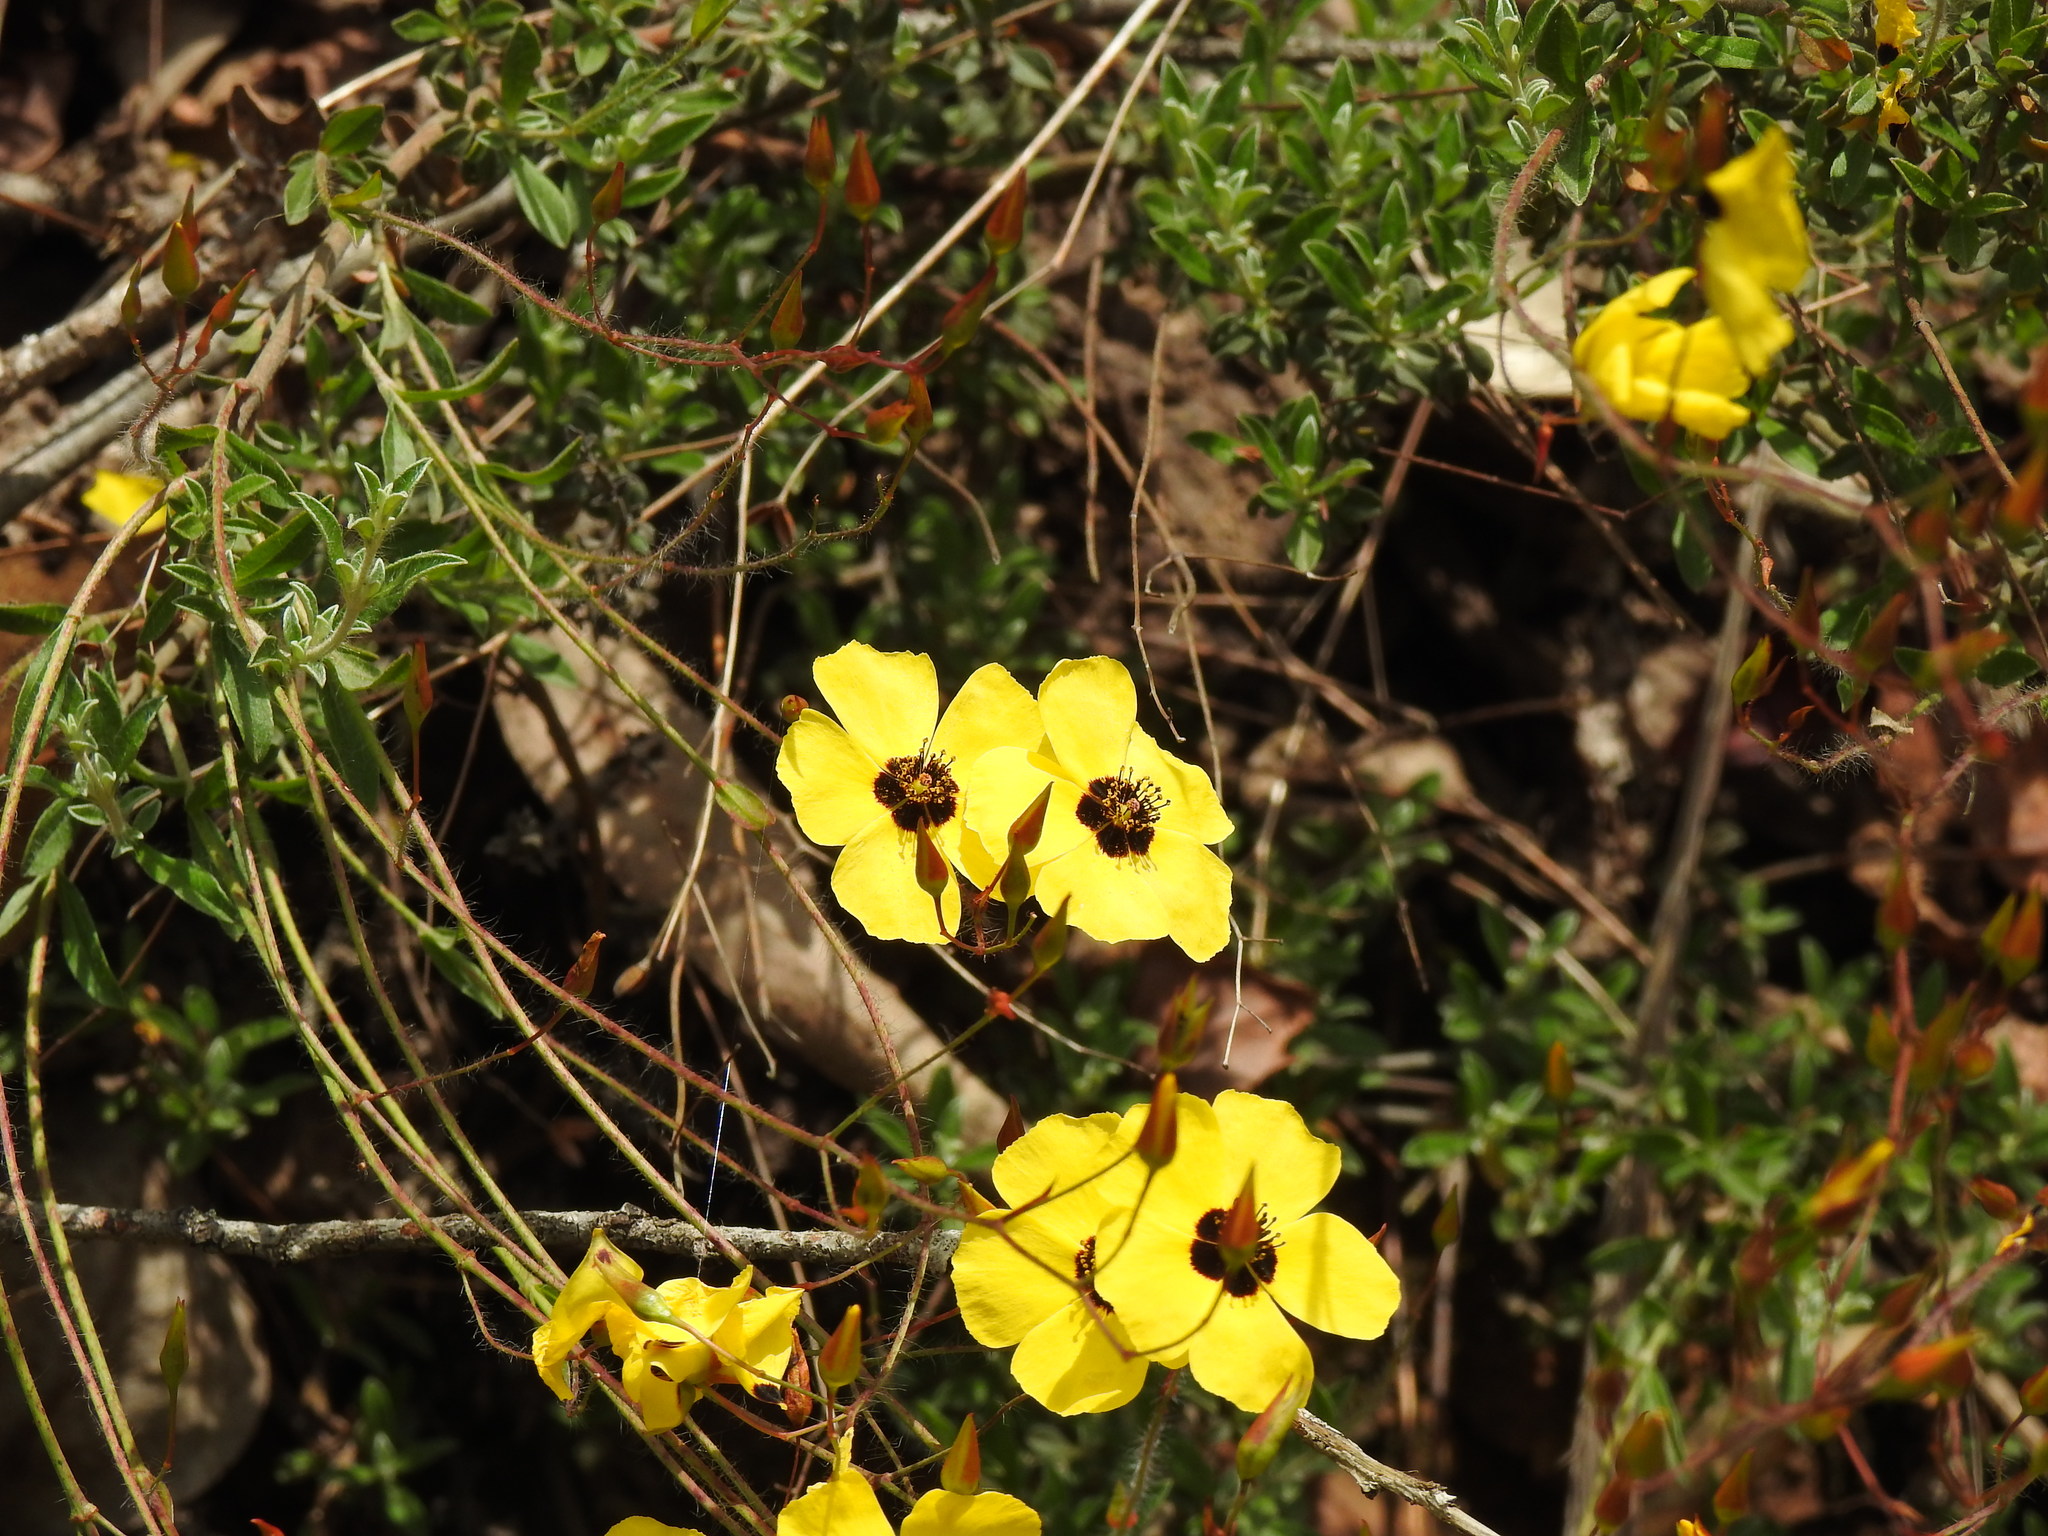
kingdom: Plantae
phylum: Tracheophyta
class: Magnoliopsida
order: Malvales
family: Cistaceae
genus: Cistus
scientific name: Cistus ocymoides
